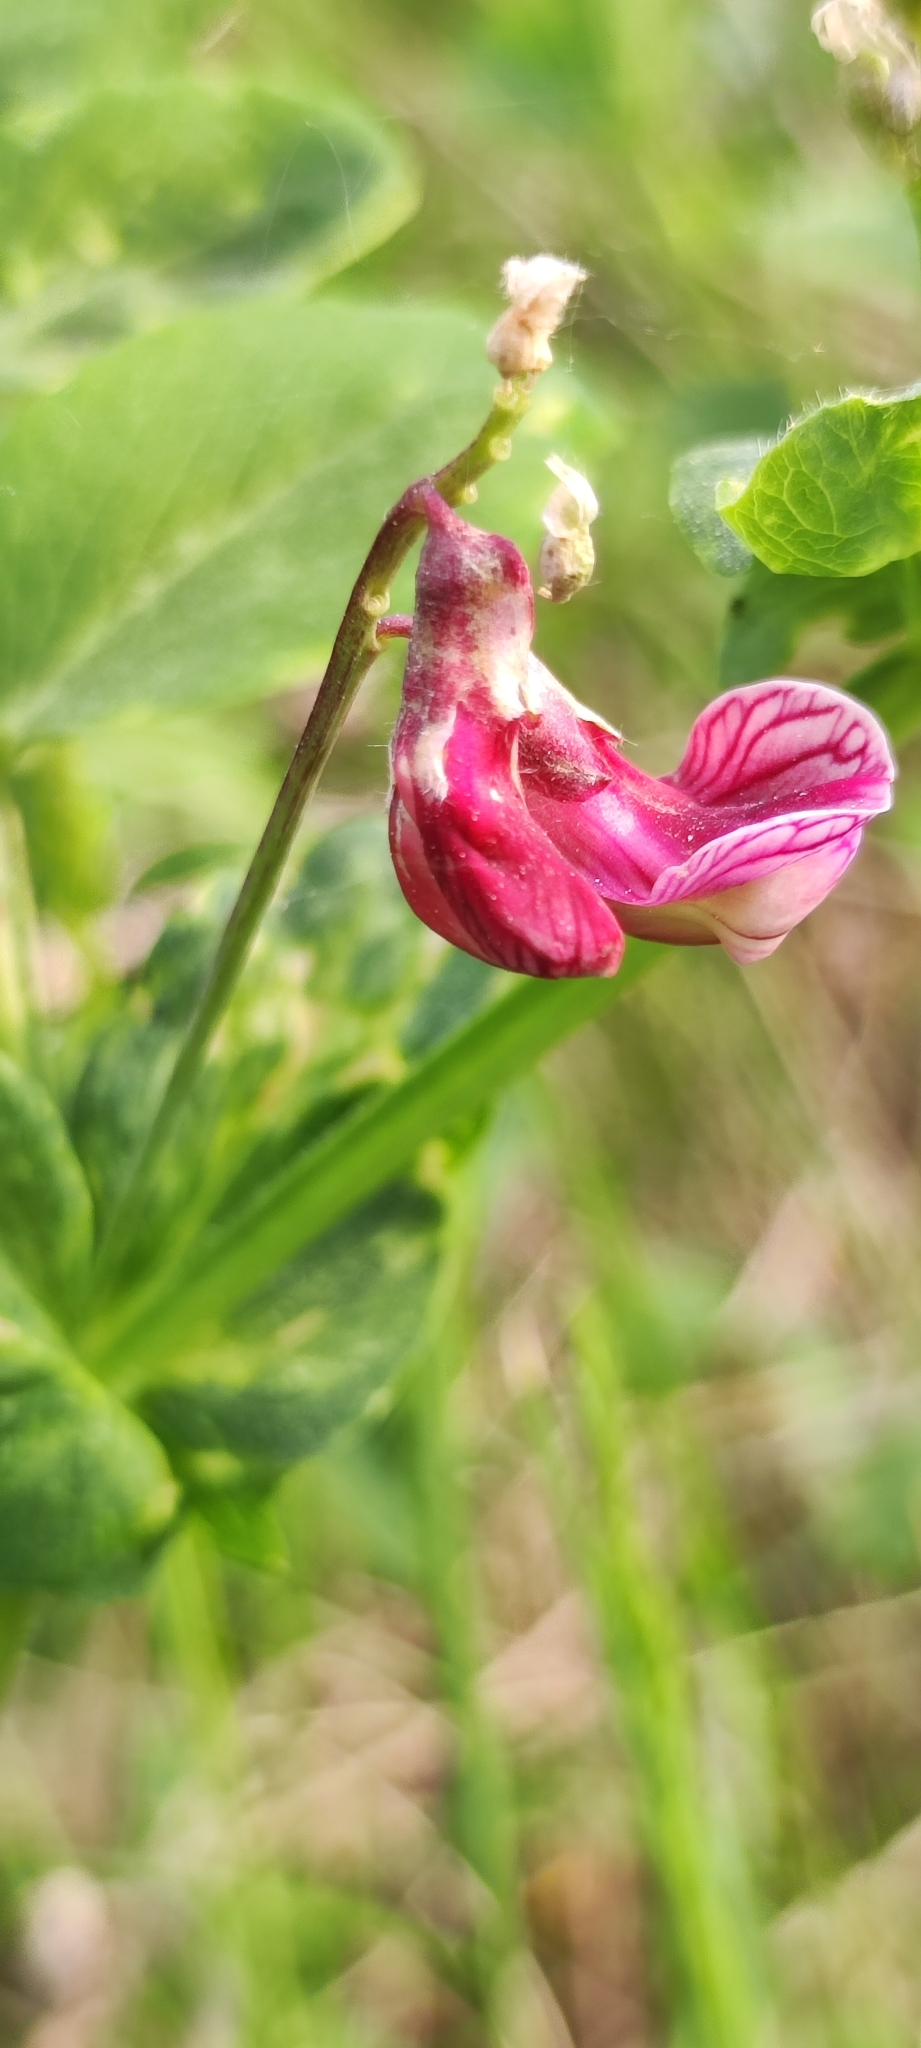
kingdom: Plantae
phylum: Tracheophyta
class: Magnoliopsida
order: Fabales
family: Fabaceae
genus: Lathyrus
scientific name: Lathyrus pisiformis
